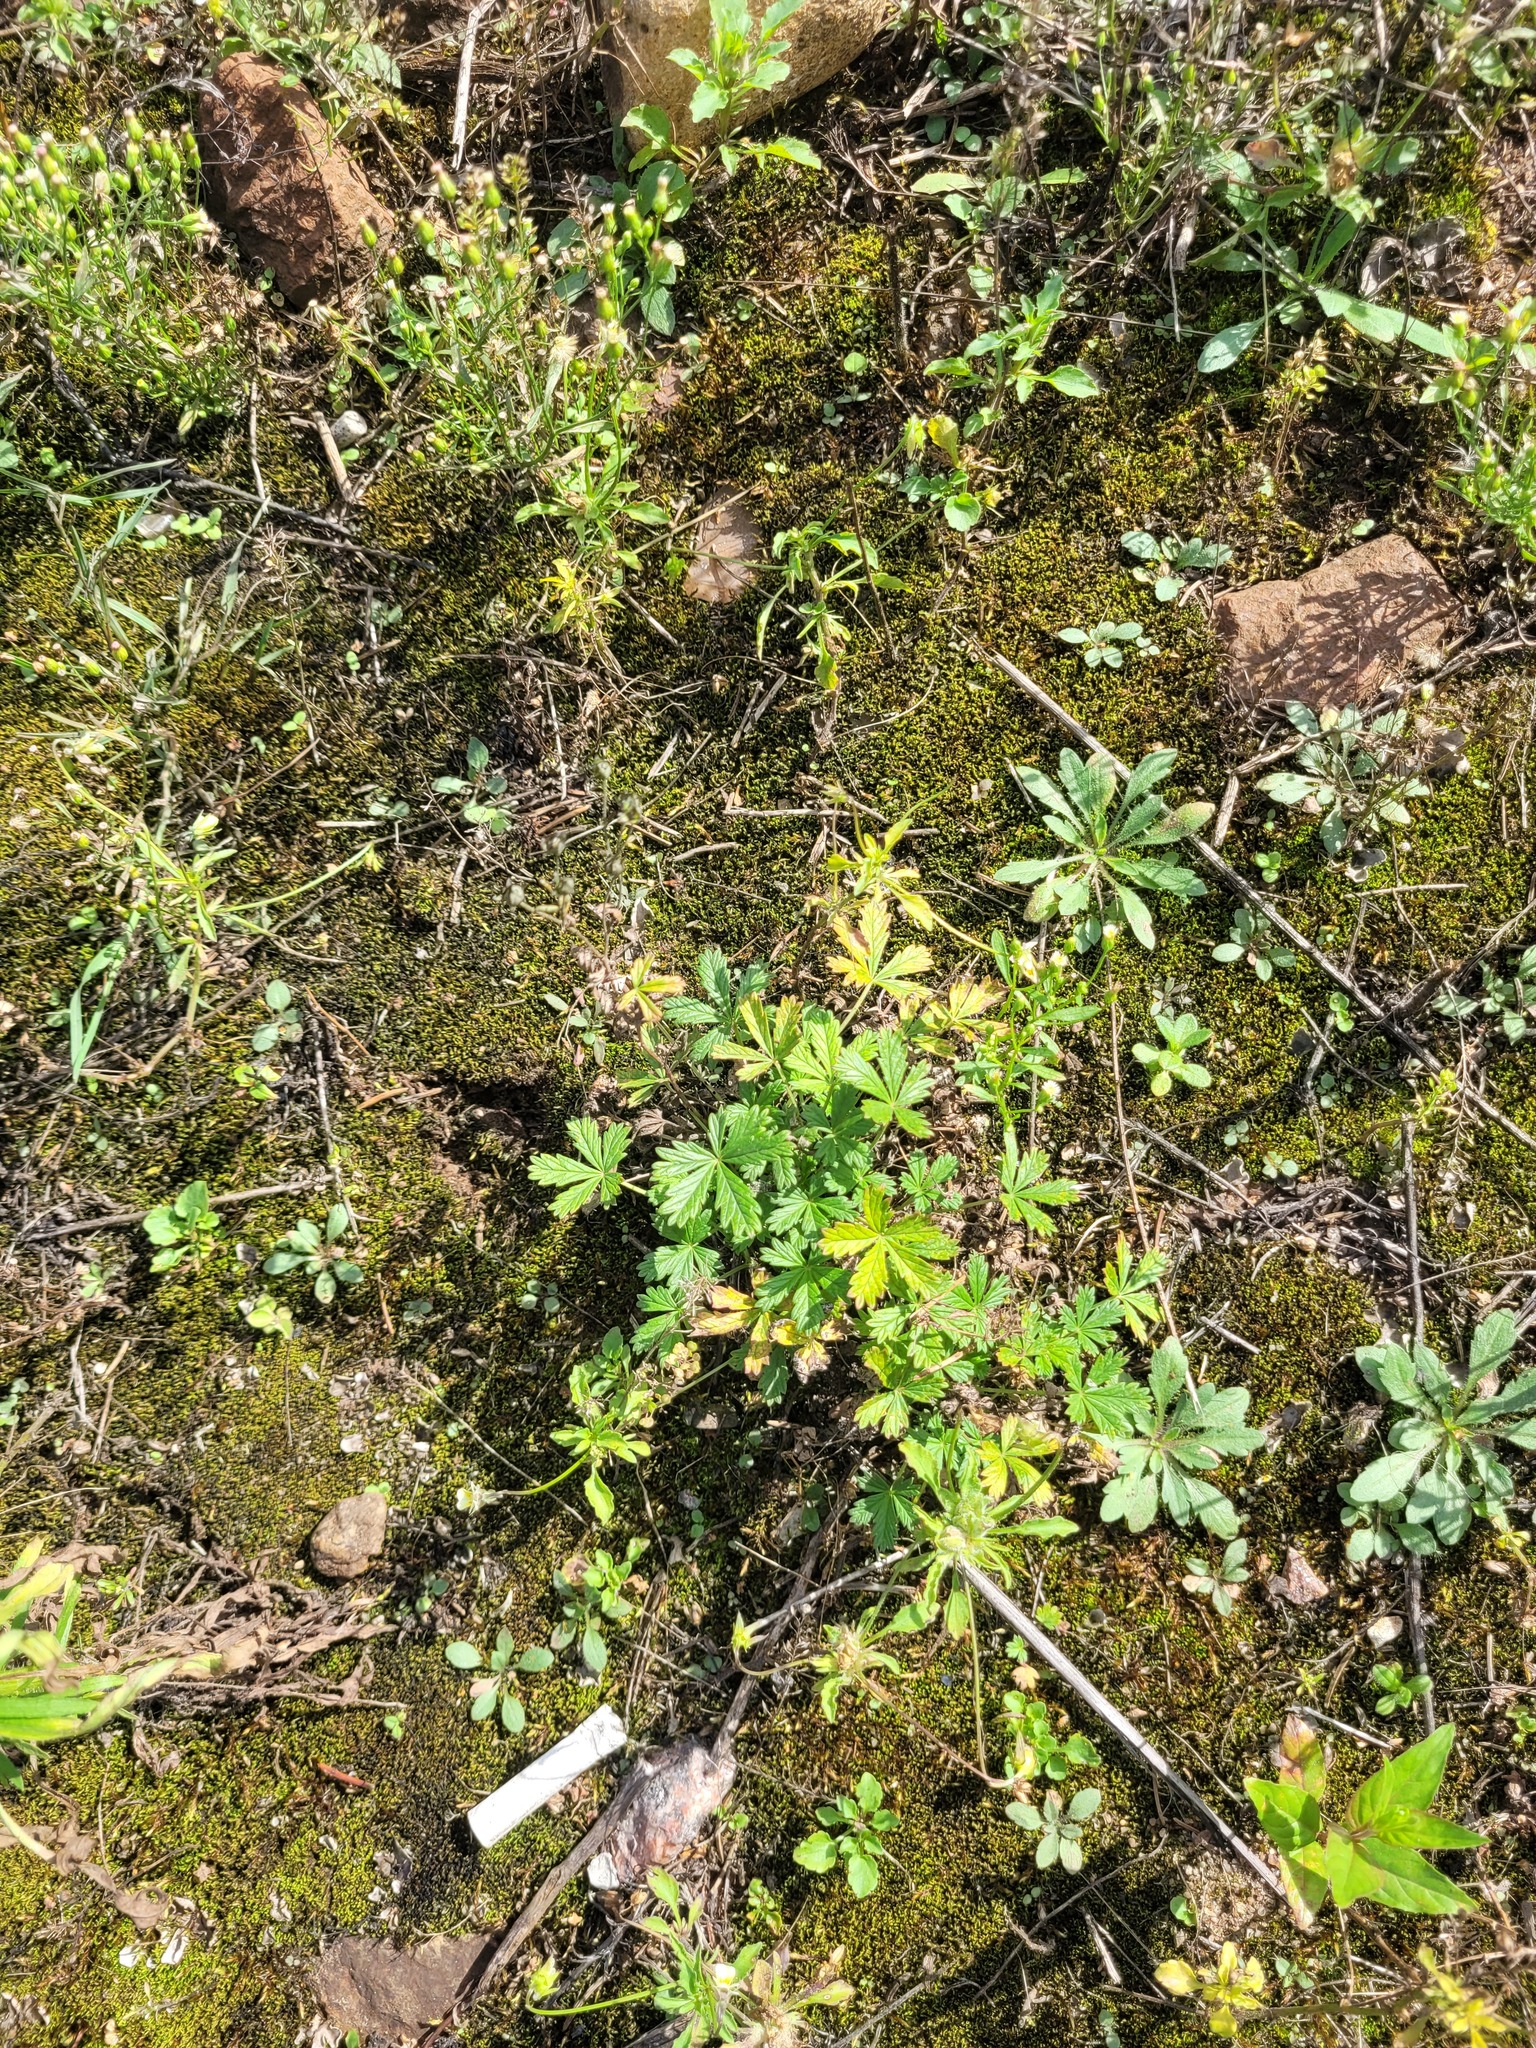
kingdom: Plantae
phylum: Tracheophyta
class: Magnoliopsida
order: Rosales
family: Rosaceae
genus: Potentilla
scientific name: Potentilla argentea
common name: Hoary cinquefoil
